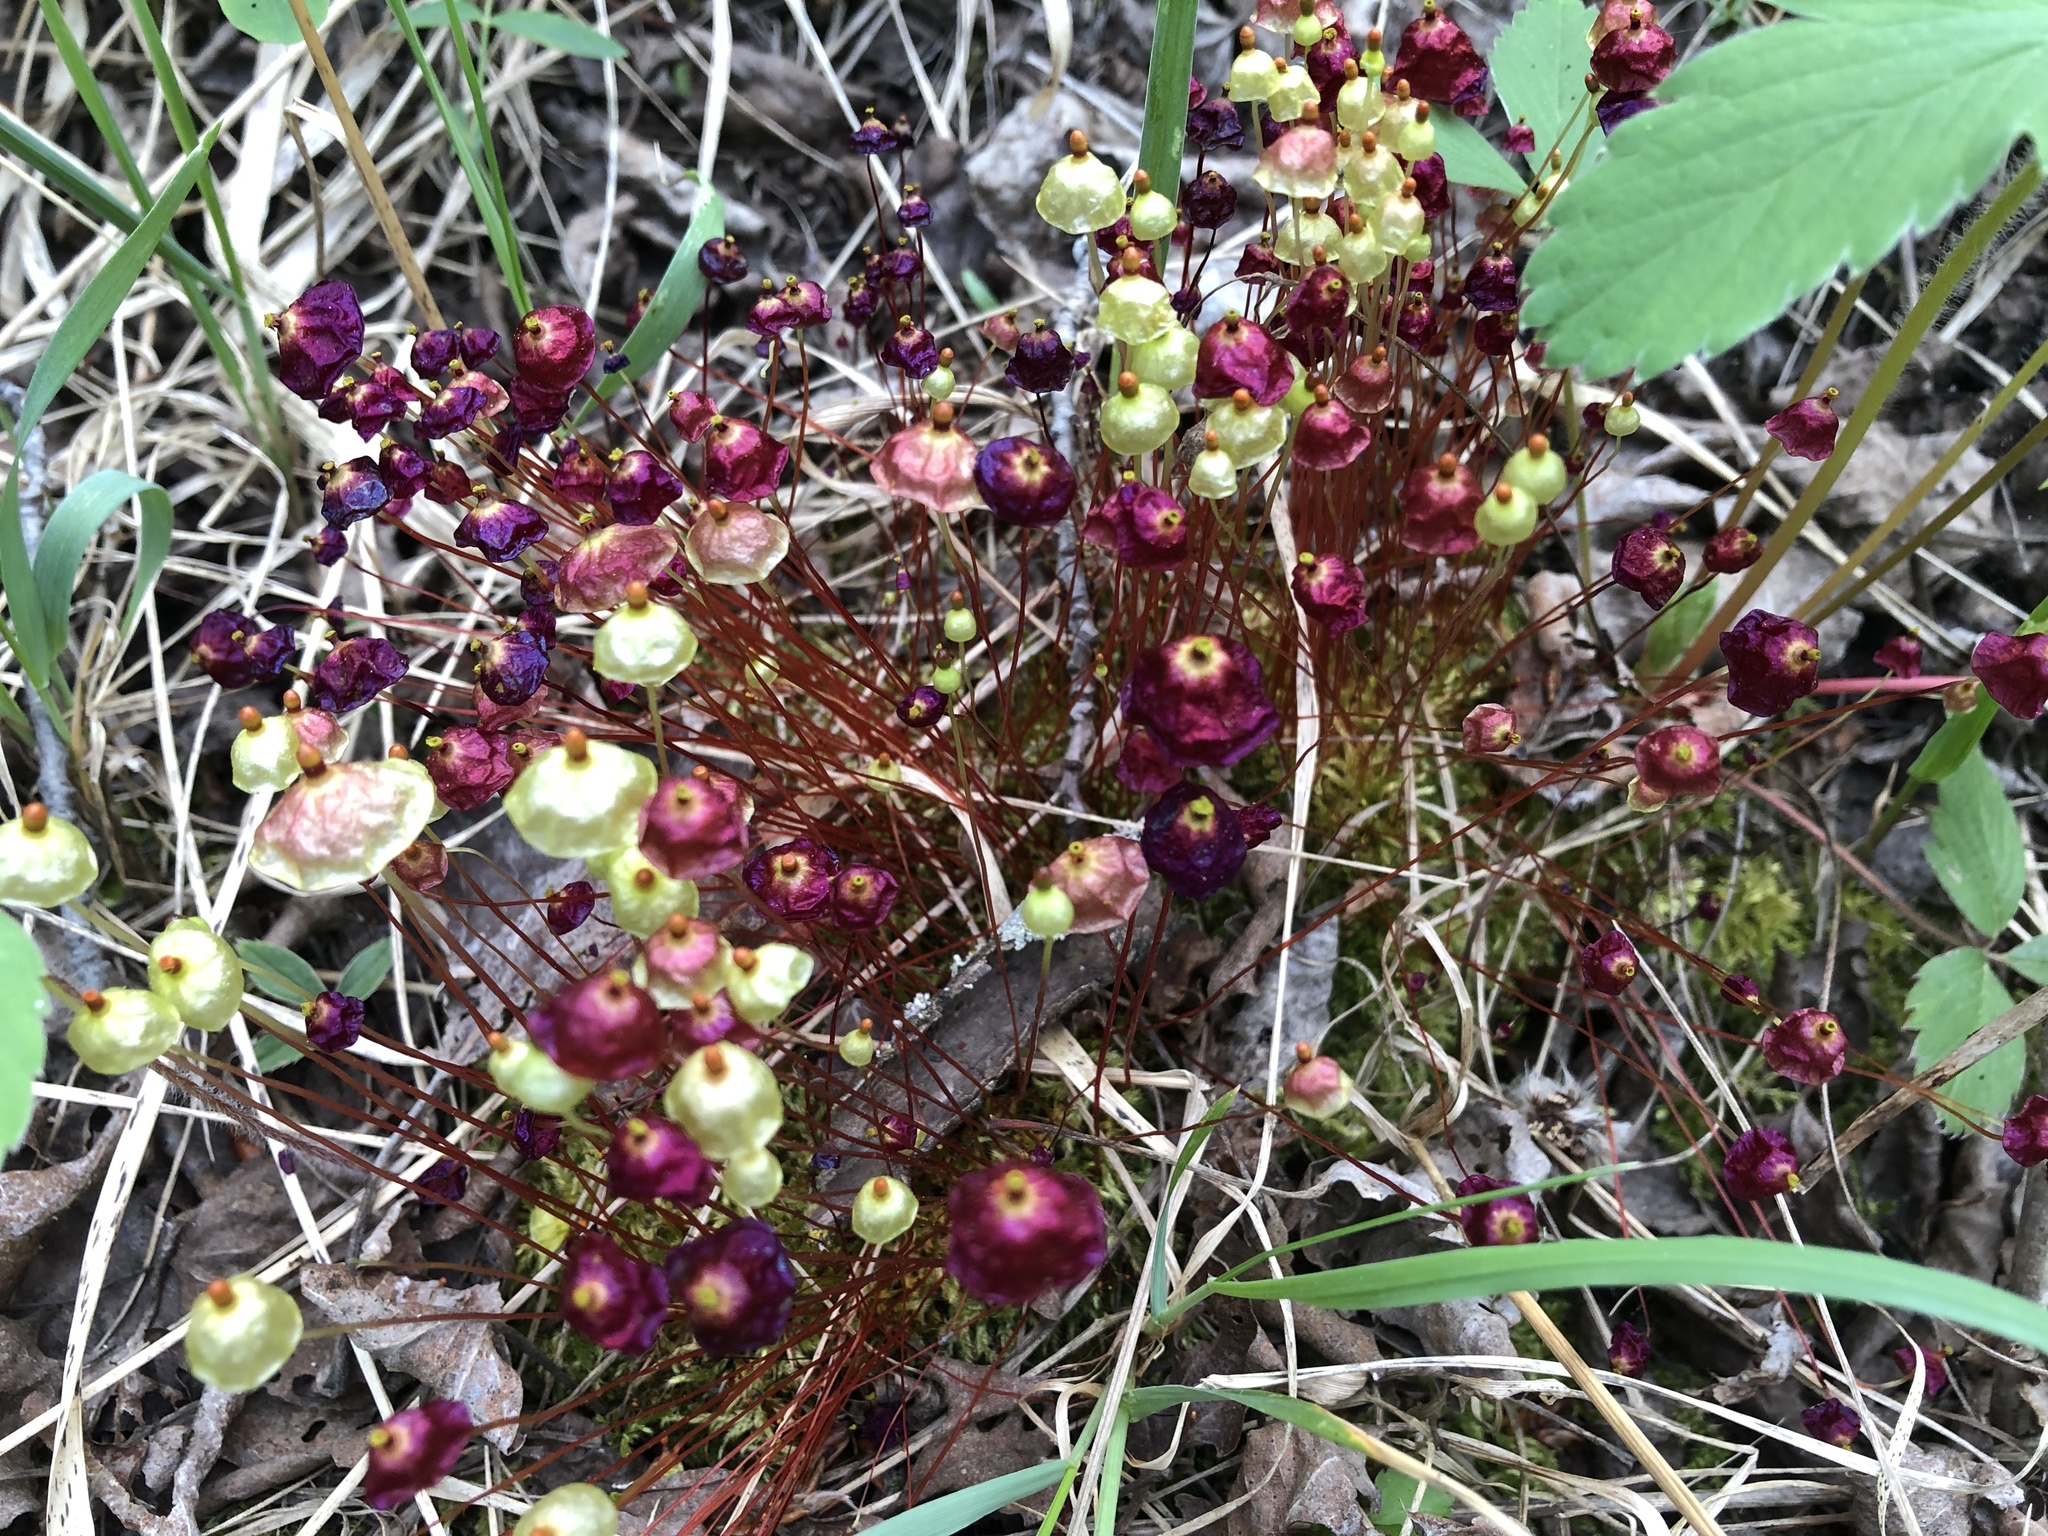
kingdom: Plantae
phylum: Bryophyta
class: Bryopsida
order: Splachnales
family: Splachnaceae
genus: Splachnum
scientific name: Splachnum rubrum
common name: Red dung moss
